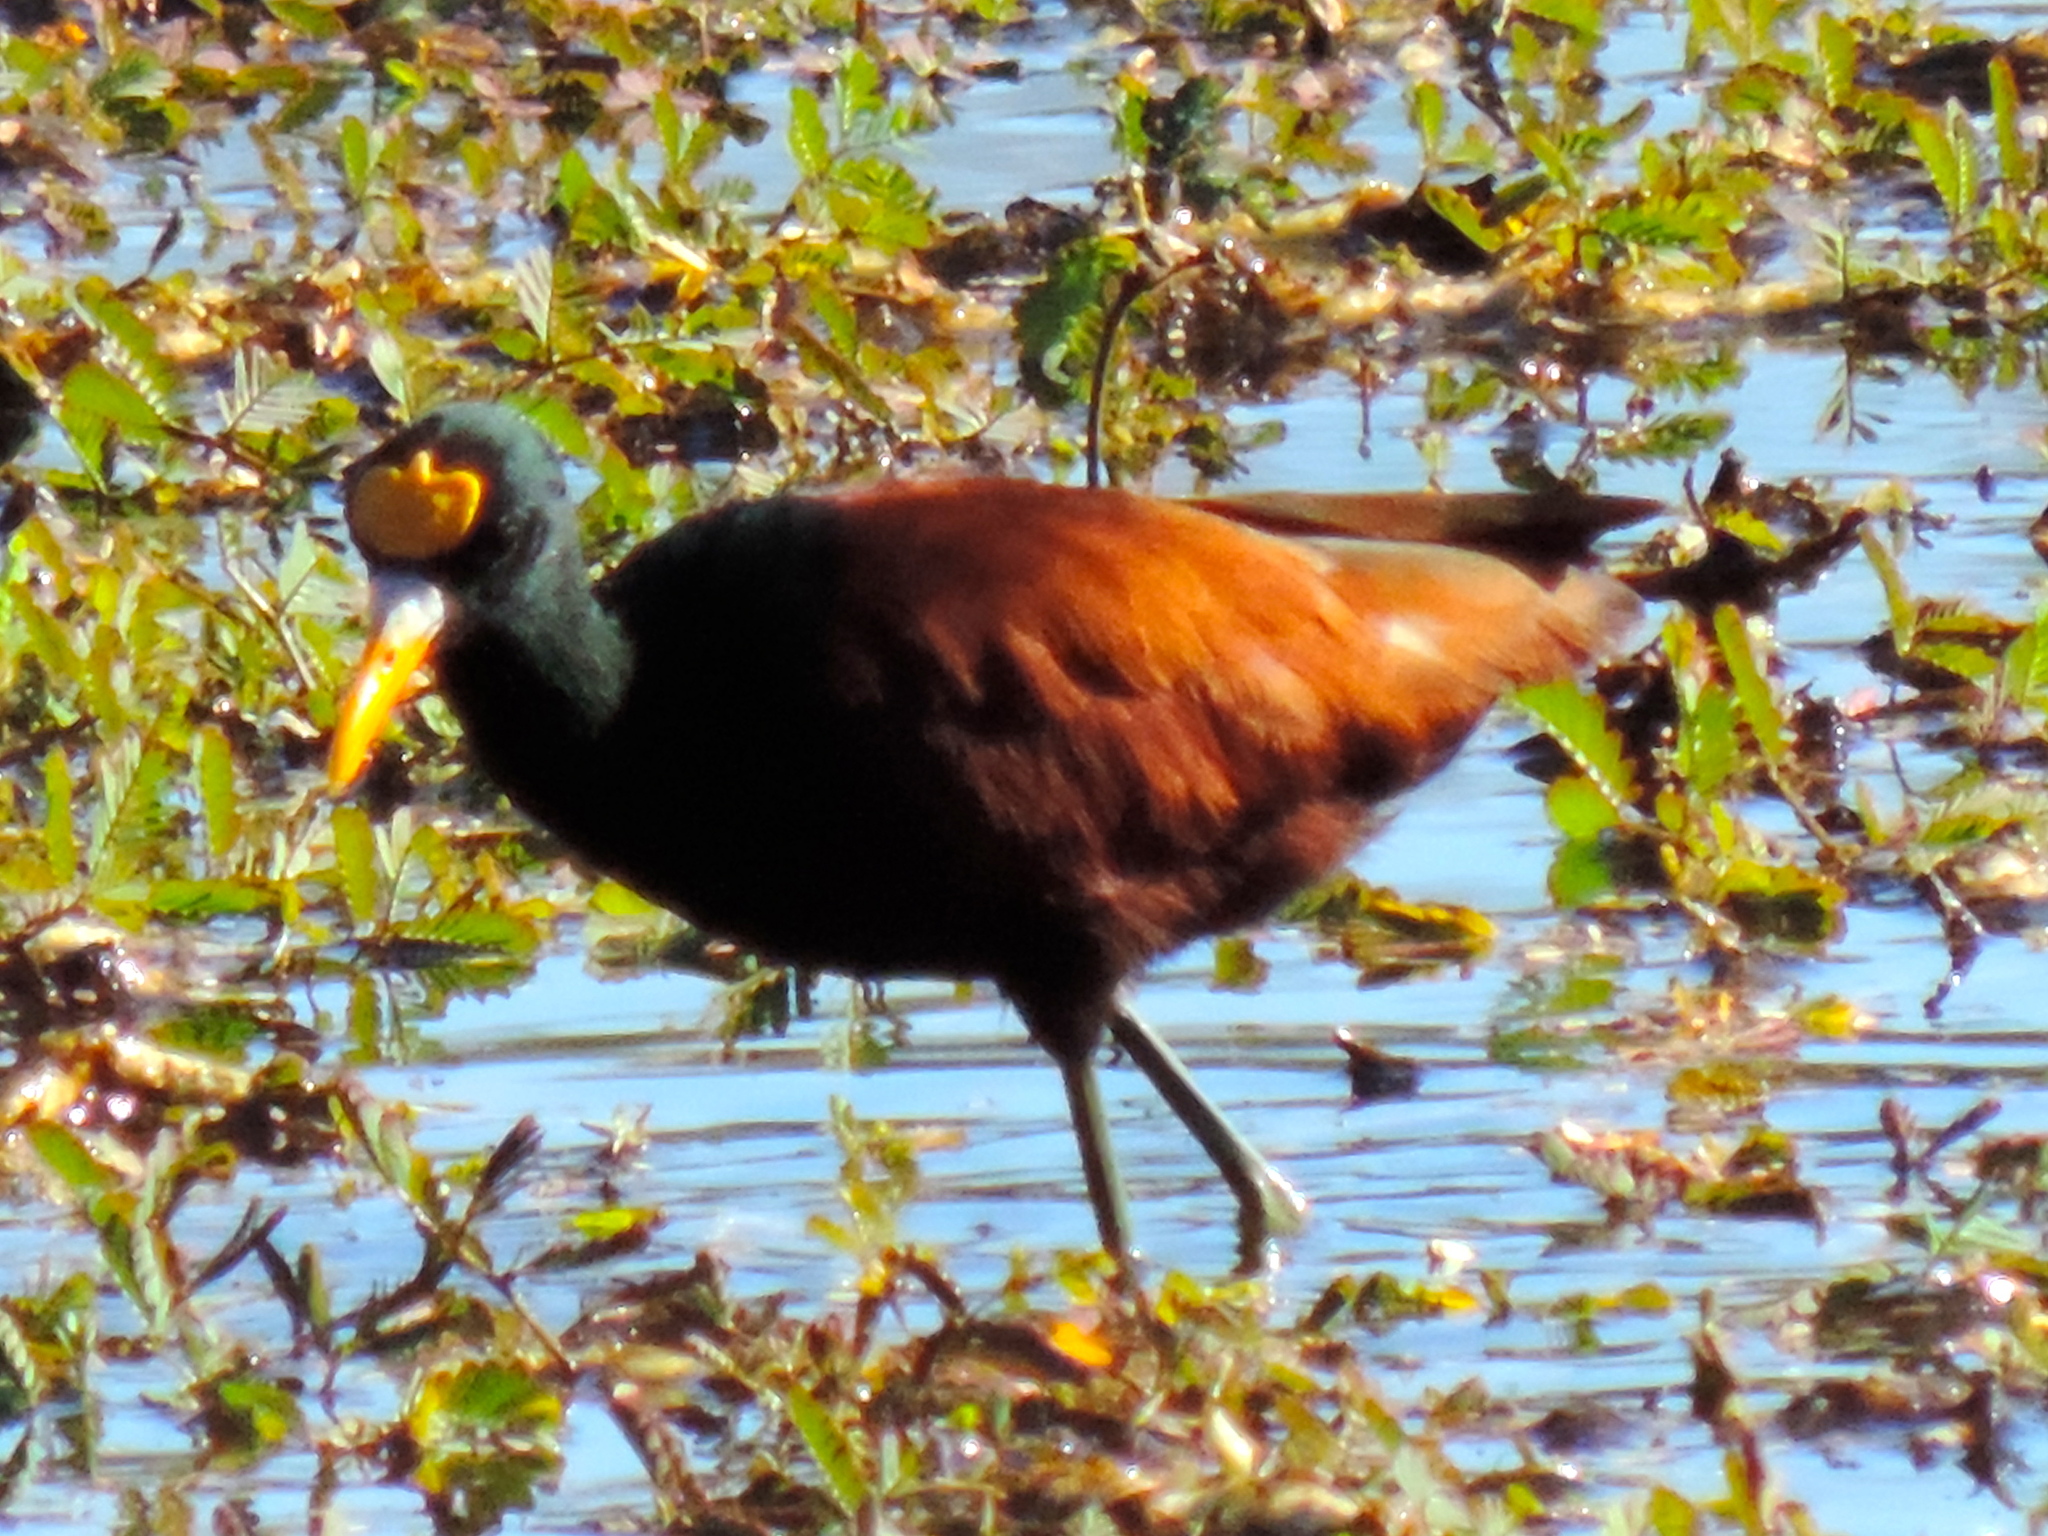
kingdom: Animalia
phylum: Chordata
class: Aves
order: Charadriiformes
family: Jacanidae
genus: Jacana
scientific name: Jacana spinosa
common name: Northern jacana
